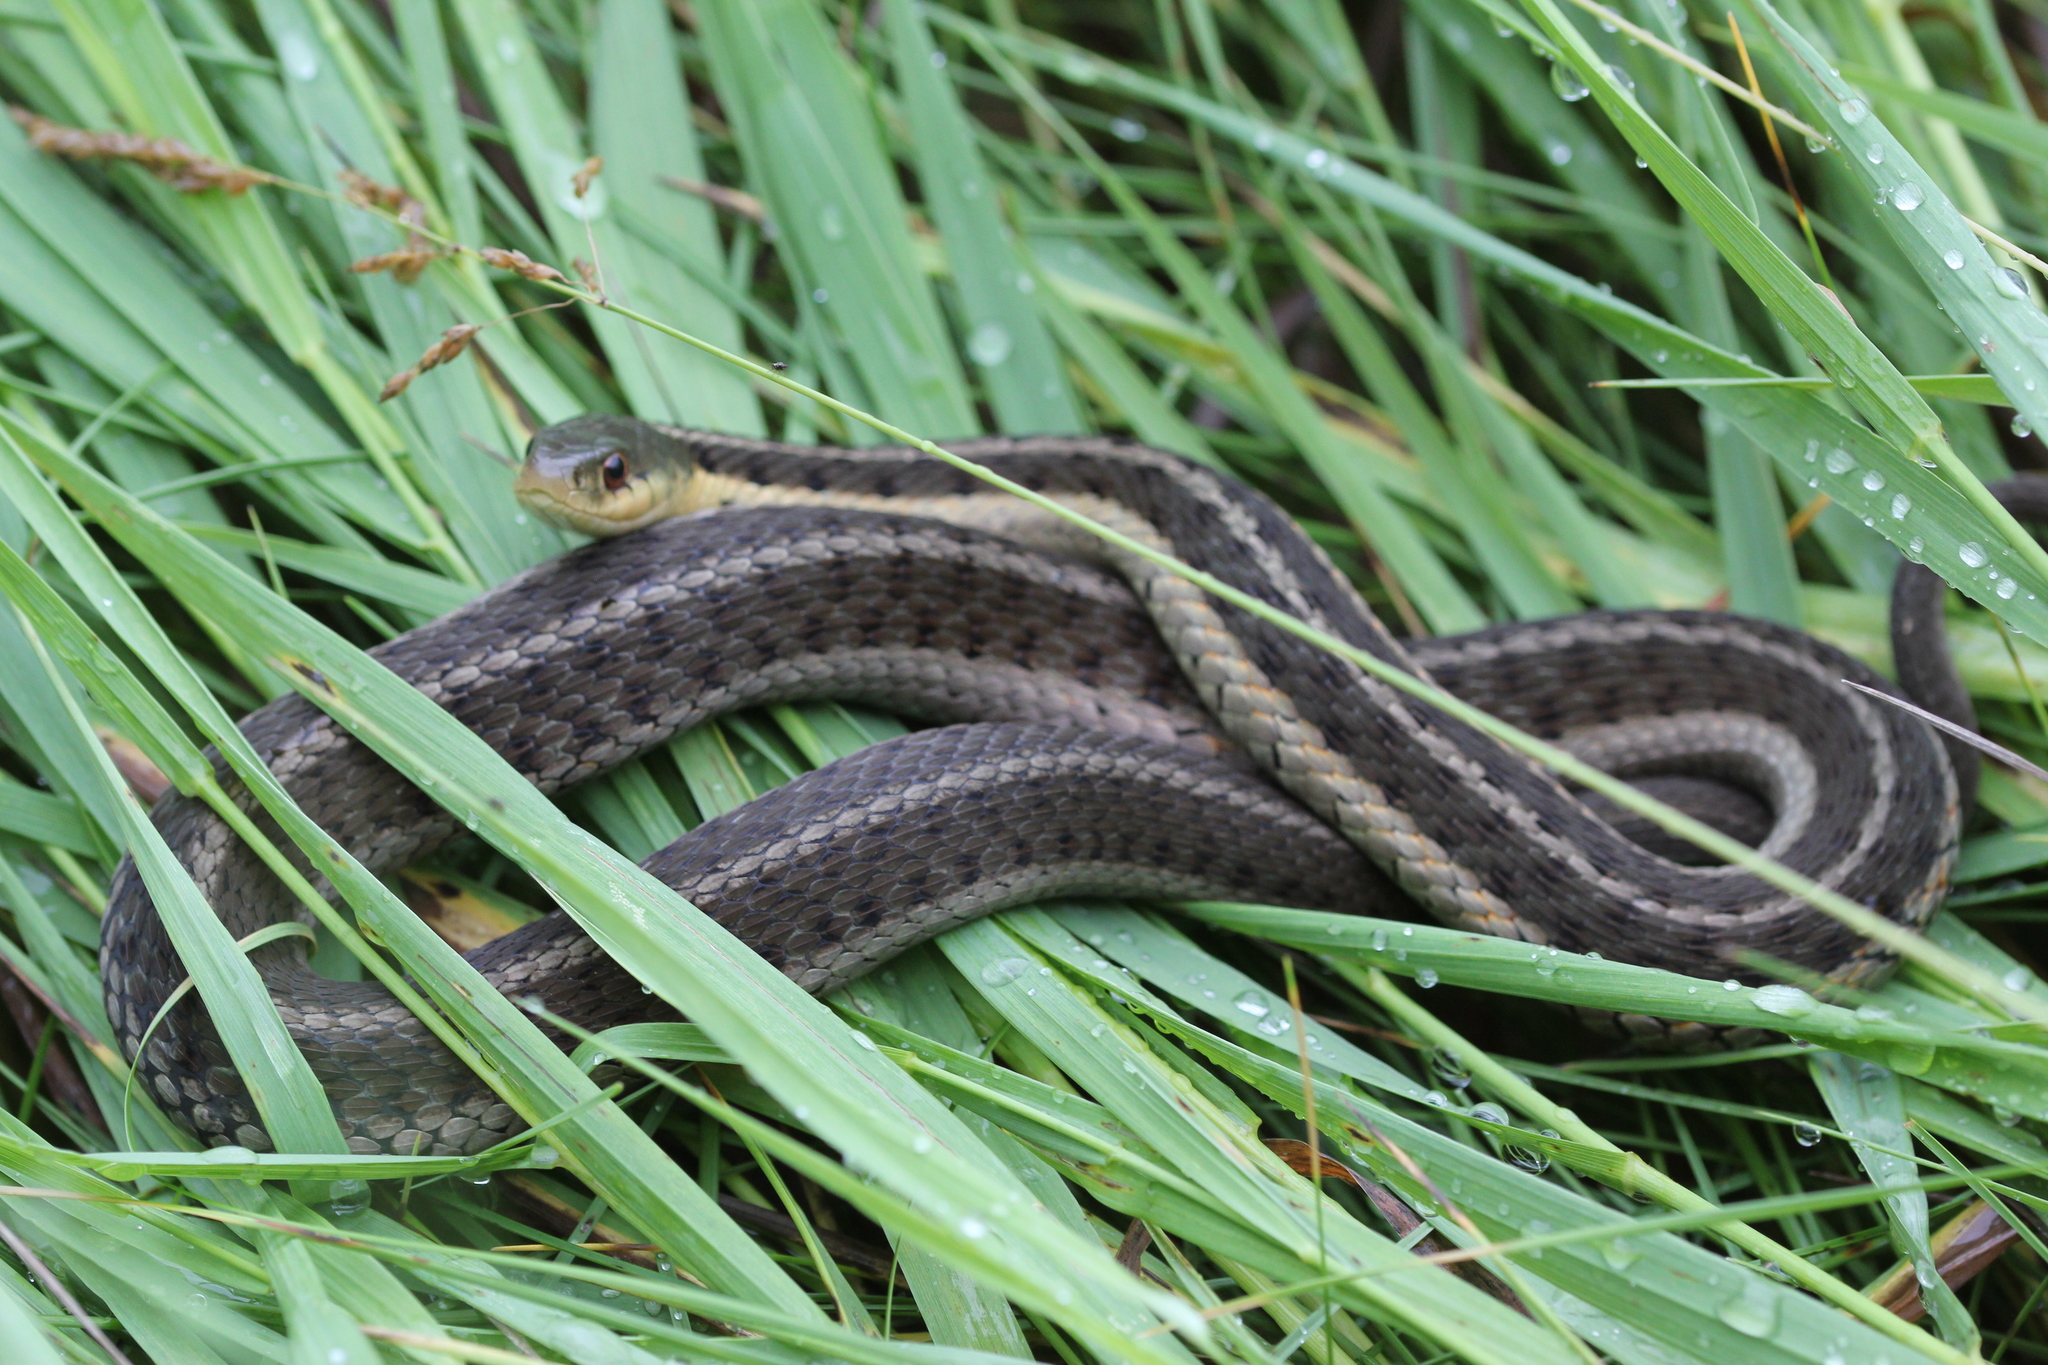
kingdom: Animalia
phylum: Chordata
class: Squamata
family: Colubridae
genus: Thamnophis
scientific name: Thamnophis sirtalis
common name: Common garter snake
